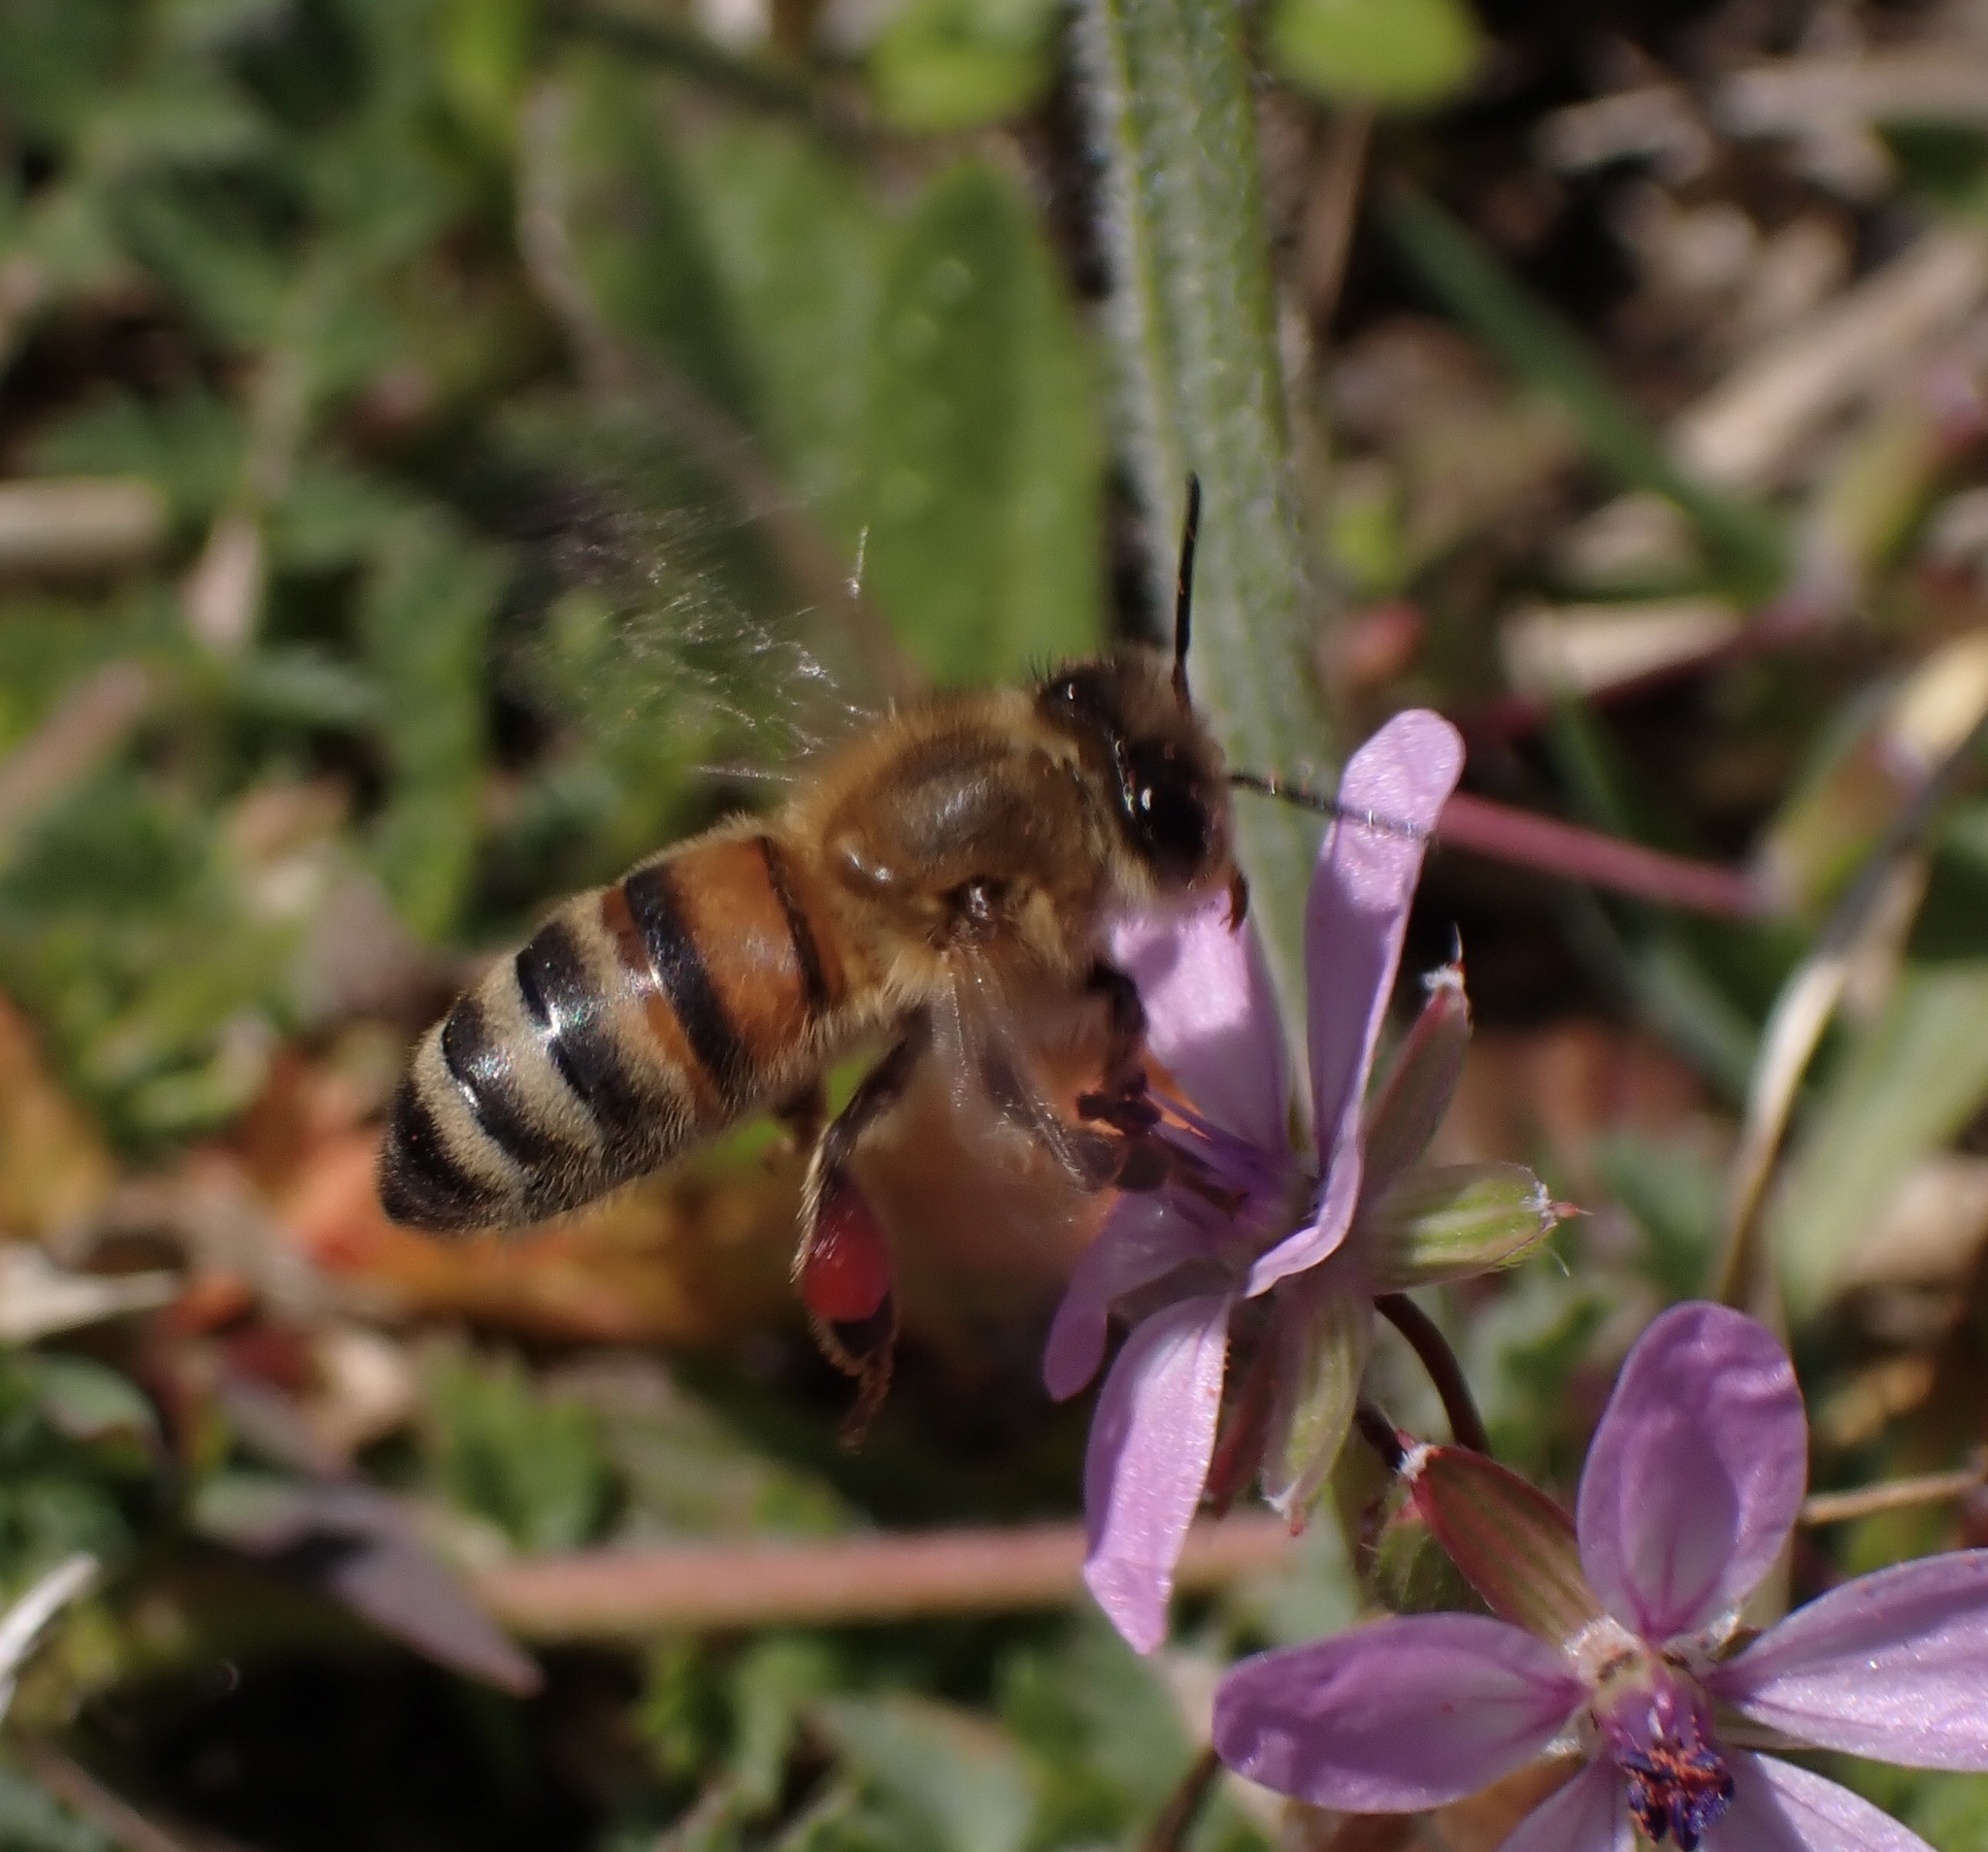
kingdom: Animalia
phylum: Arthropoda
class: Insecta
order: Hymenoptera
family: Apidae
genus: Apis
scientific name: Apis mellifera
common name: Honey bee
